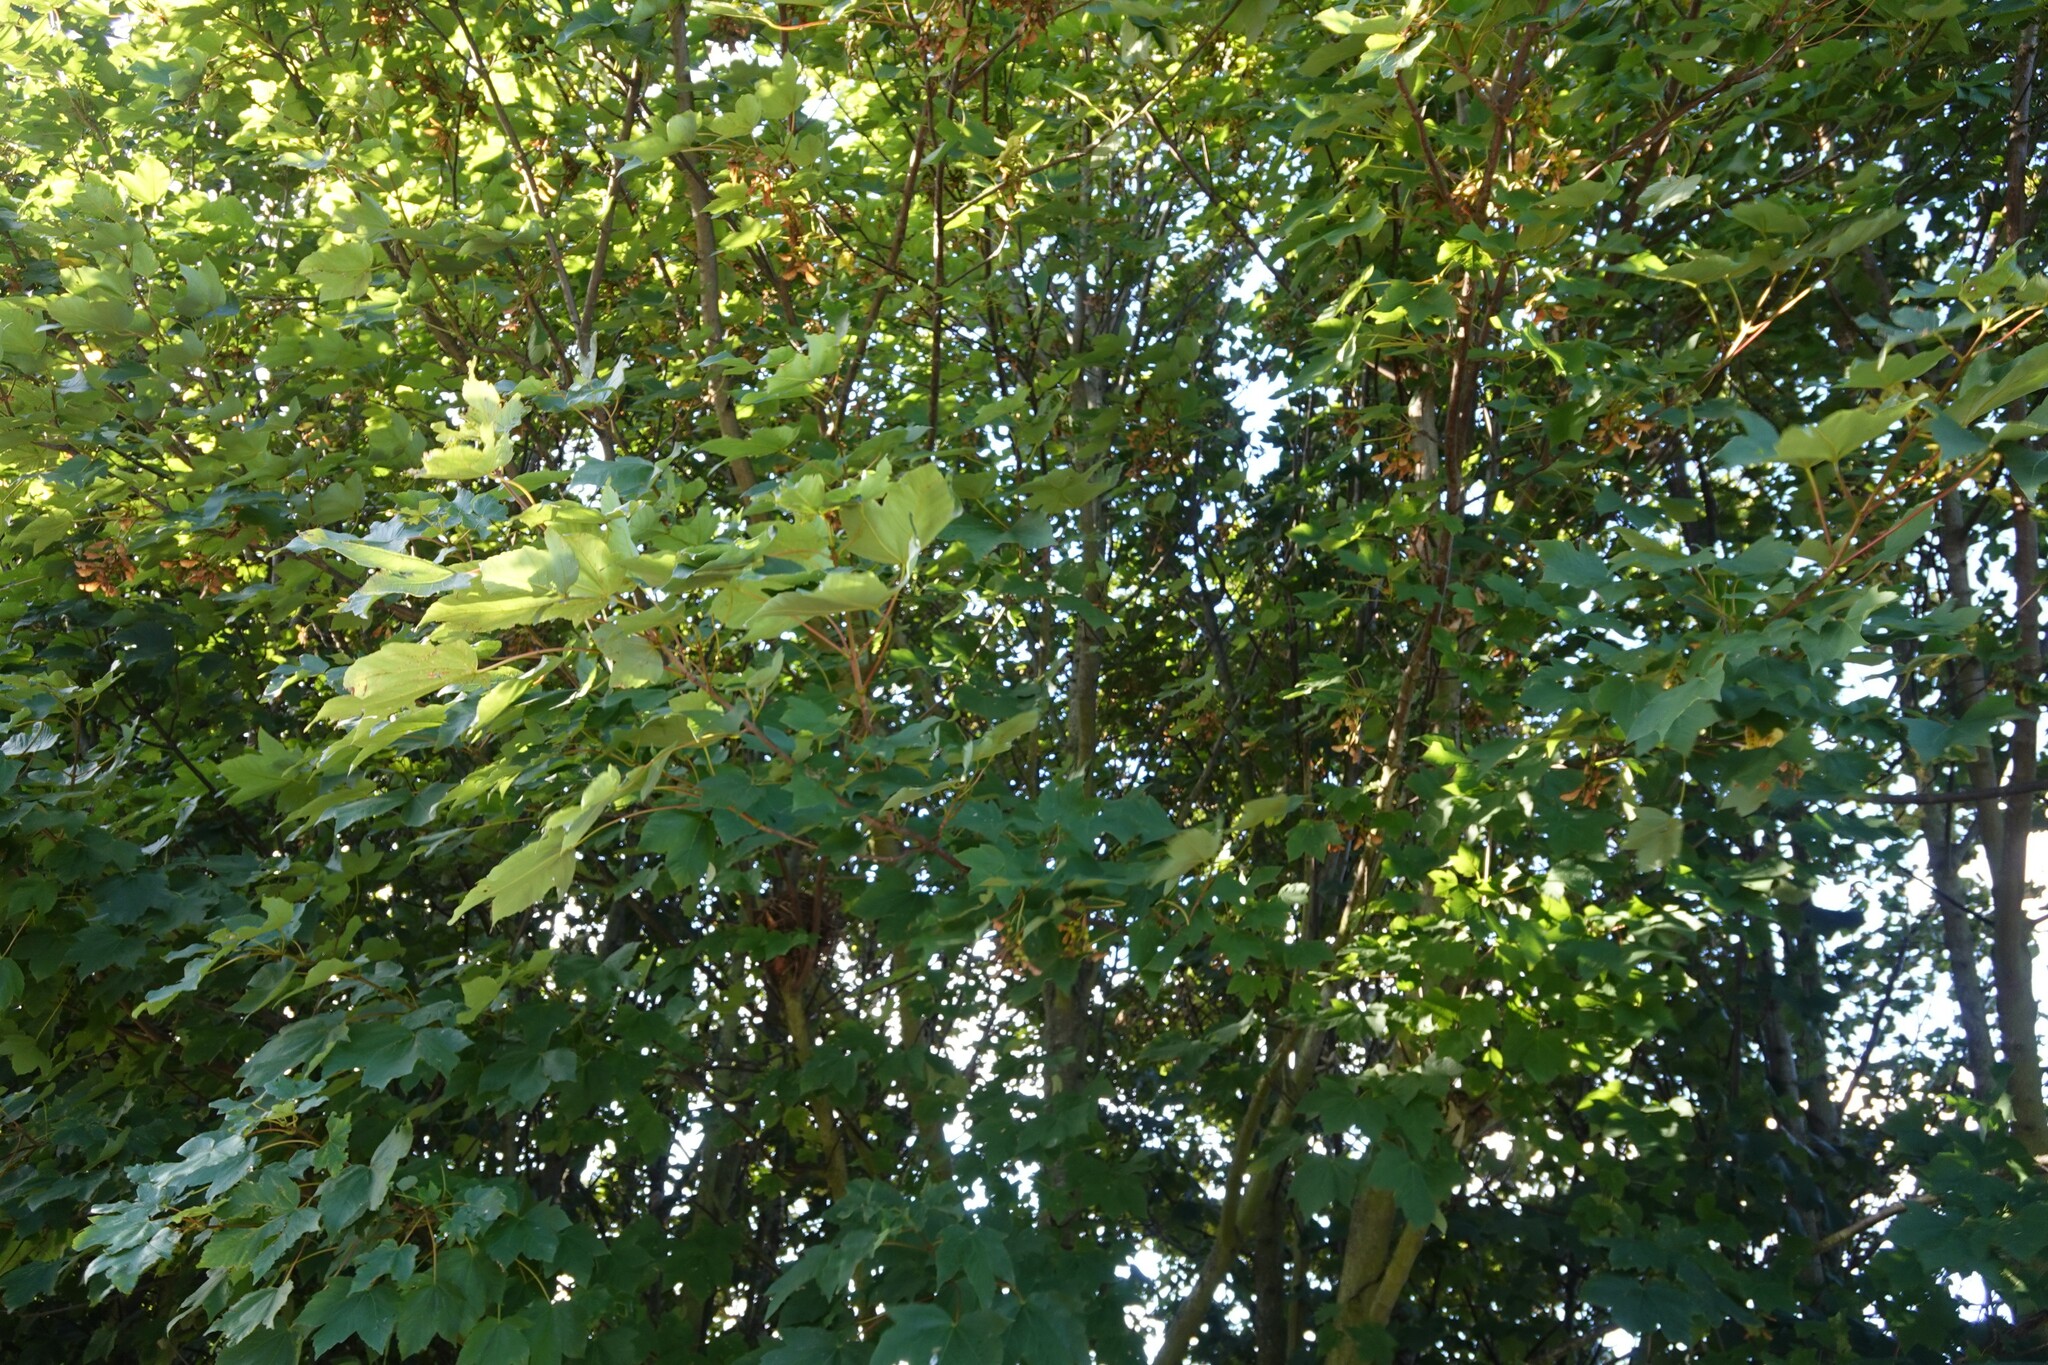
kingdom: Plantae
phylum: Tracheophyta
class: Magnoliopsida
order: Sapindales
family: Sapindaceae
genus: Acer
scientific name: Acer pseudoplatanus
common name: Sycamore
